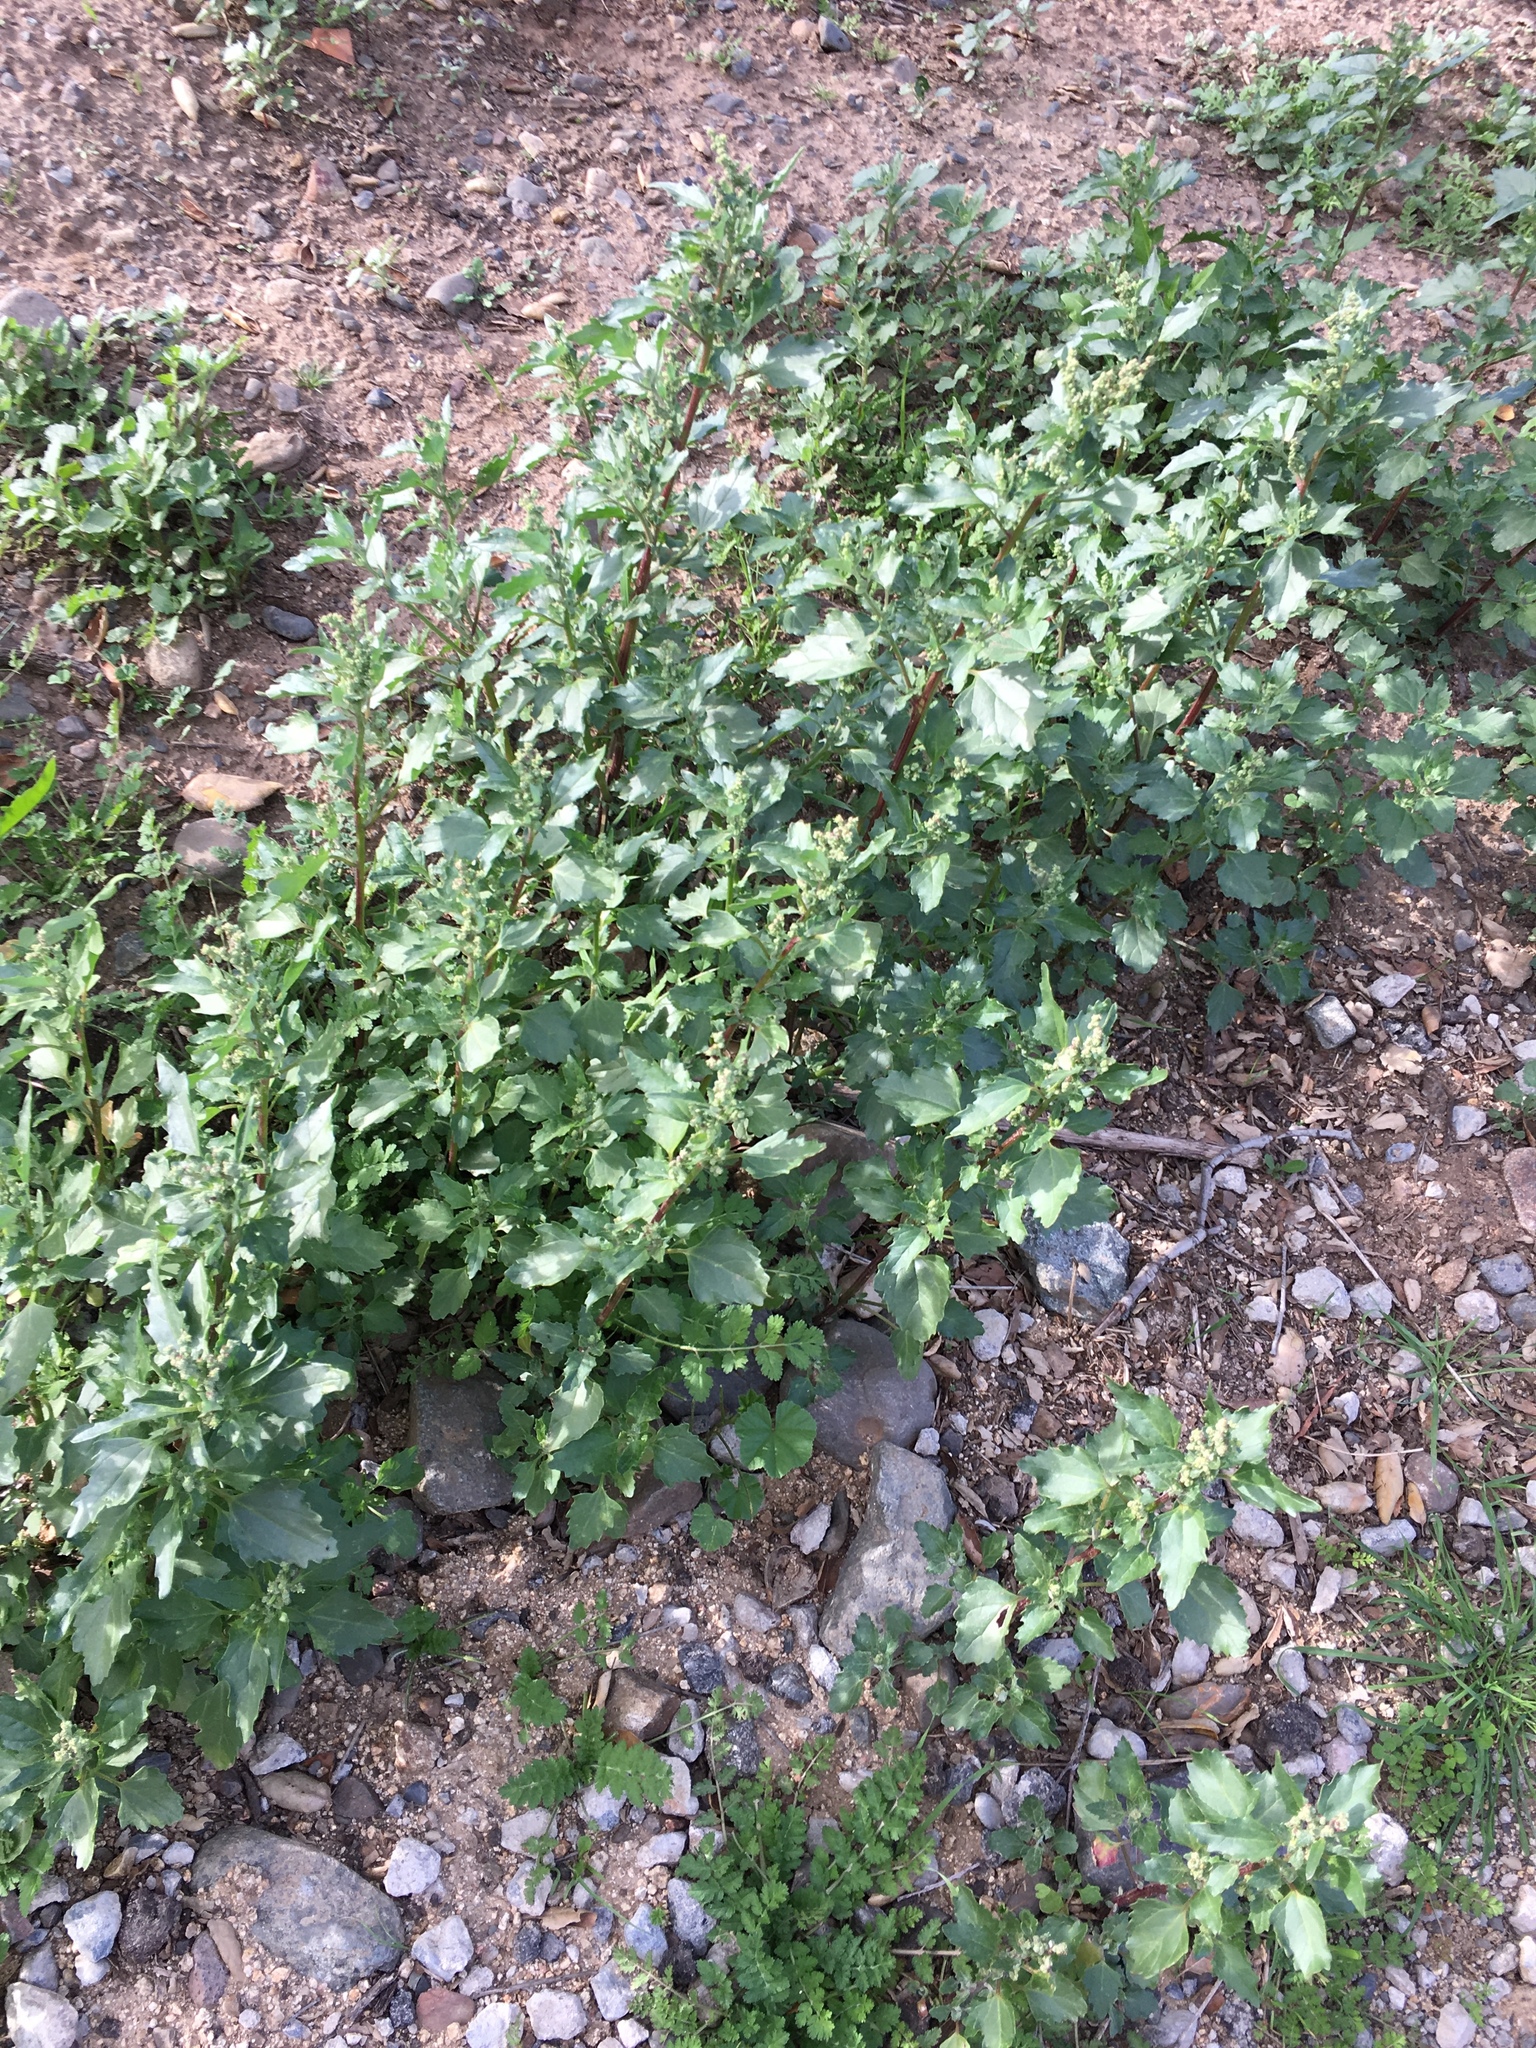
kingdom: Plantae
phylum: Tracheophyta
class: Magnoliopsida
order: Caryophyllales
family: Amaranthaceae
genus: Chenopodiastrum
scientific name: Chenopodiastrum murale
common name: Sowbane
